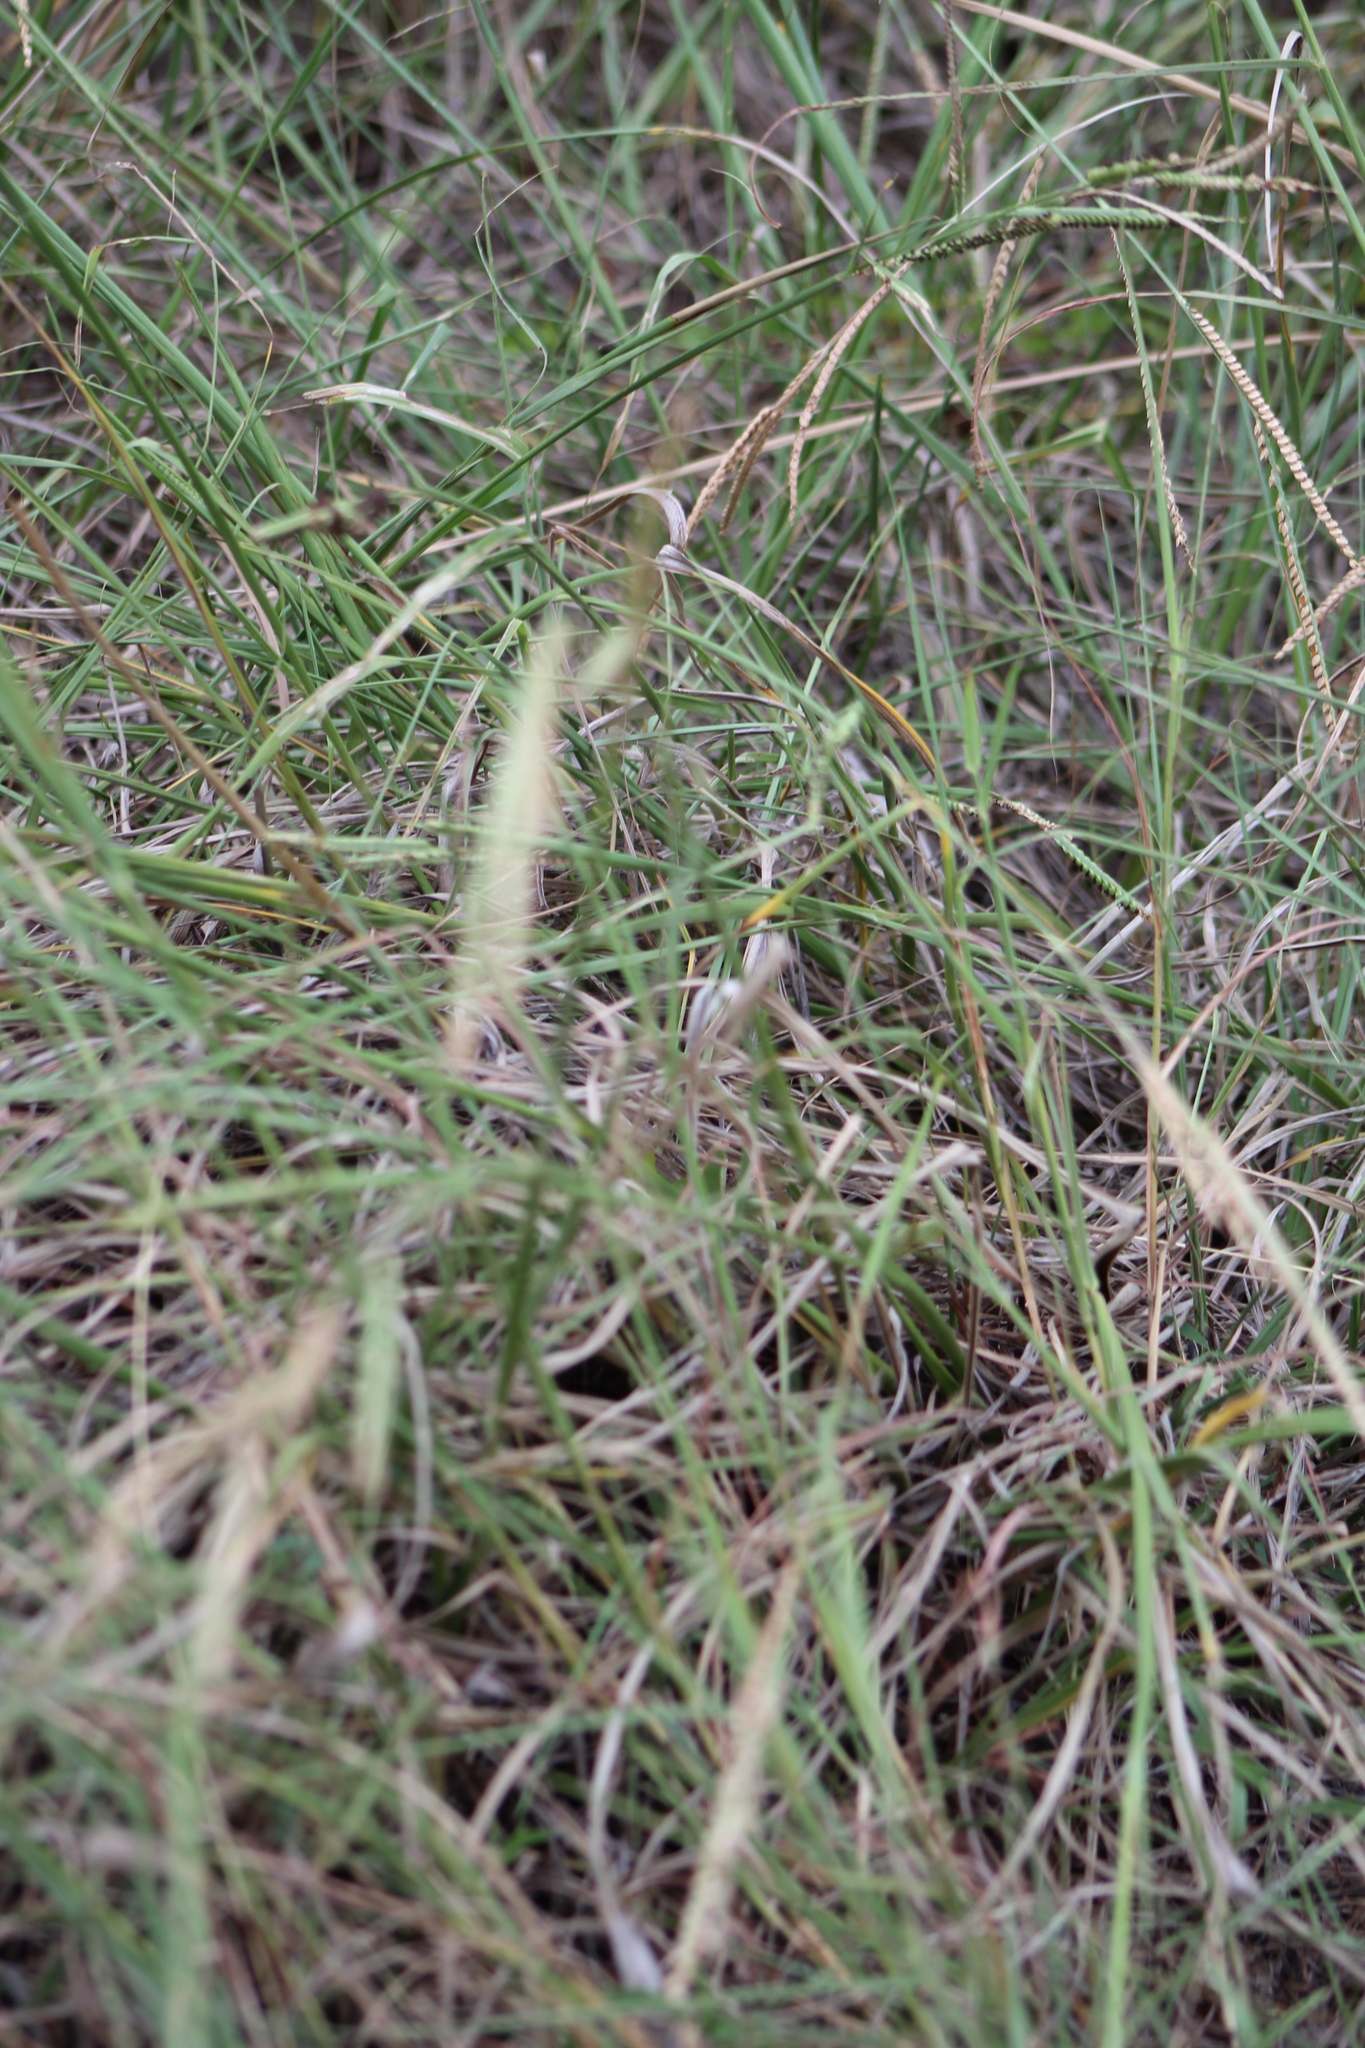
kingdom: Plantae
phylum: Tracheophyta
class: Liliopsida
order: Poales
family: Poaceae
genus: Paspalum
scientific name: Paspalum floridanum
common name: Florida paspalum
